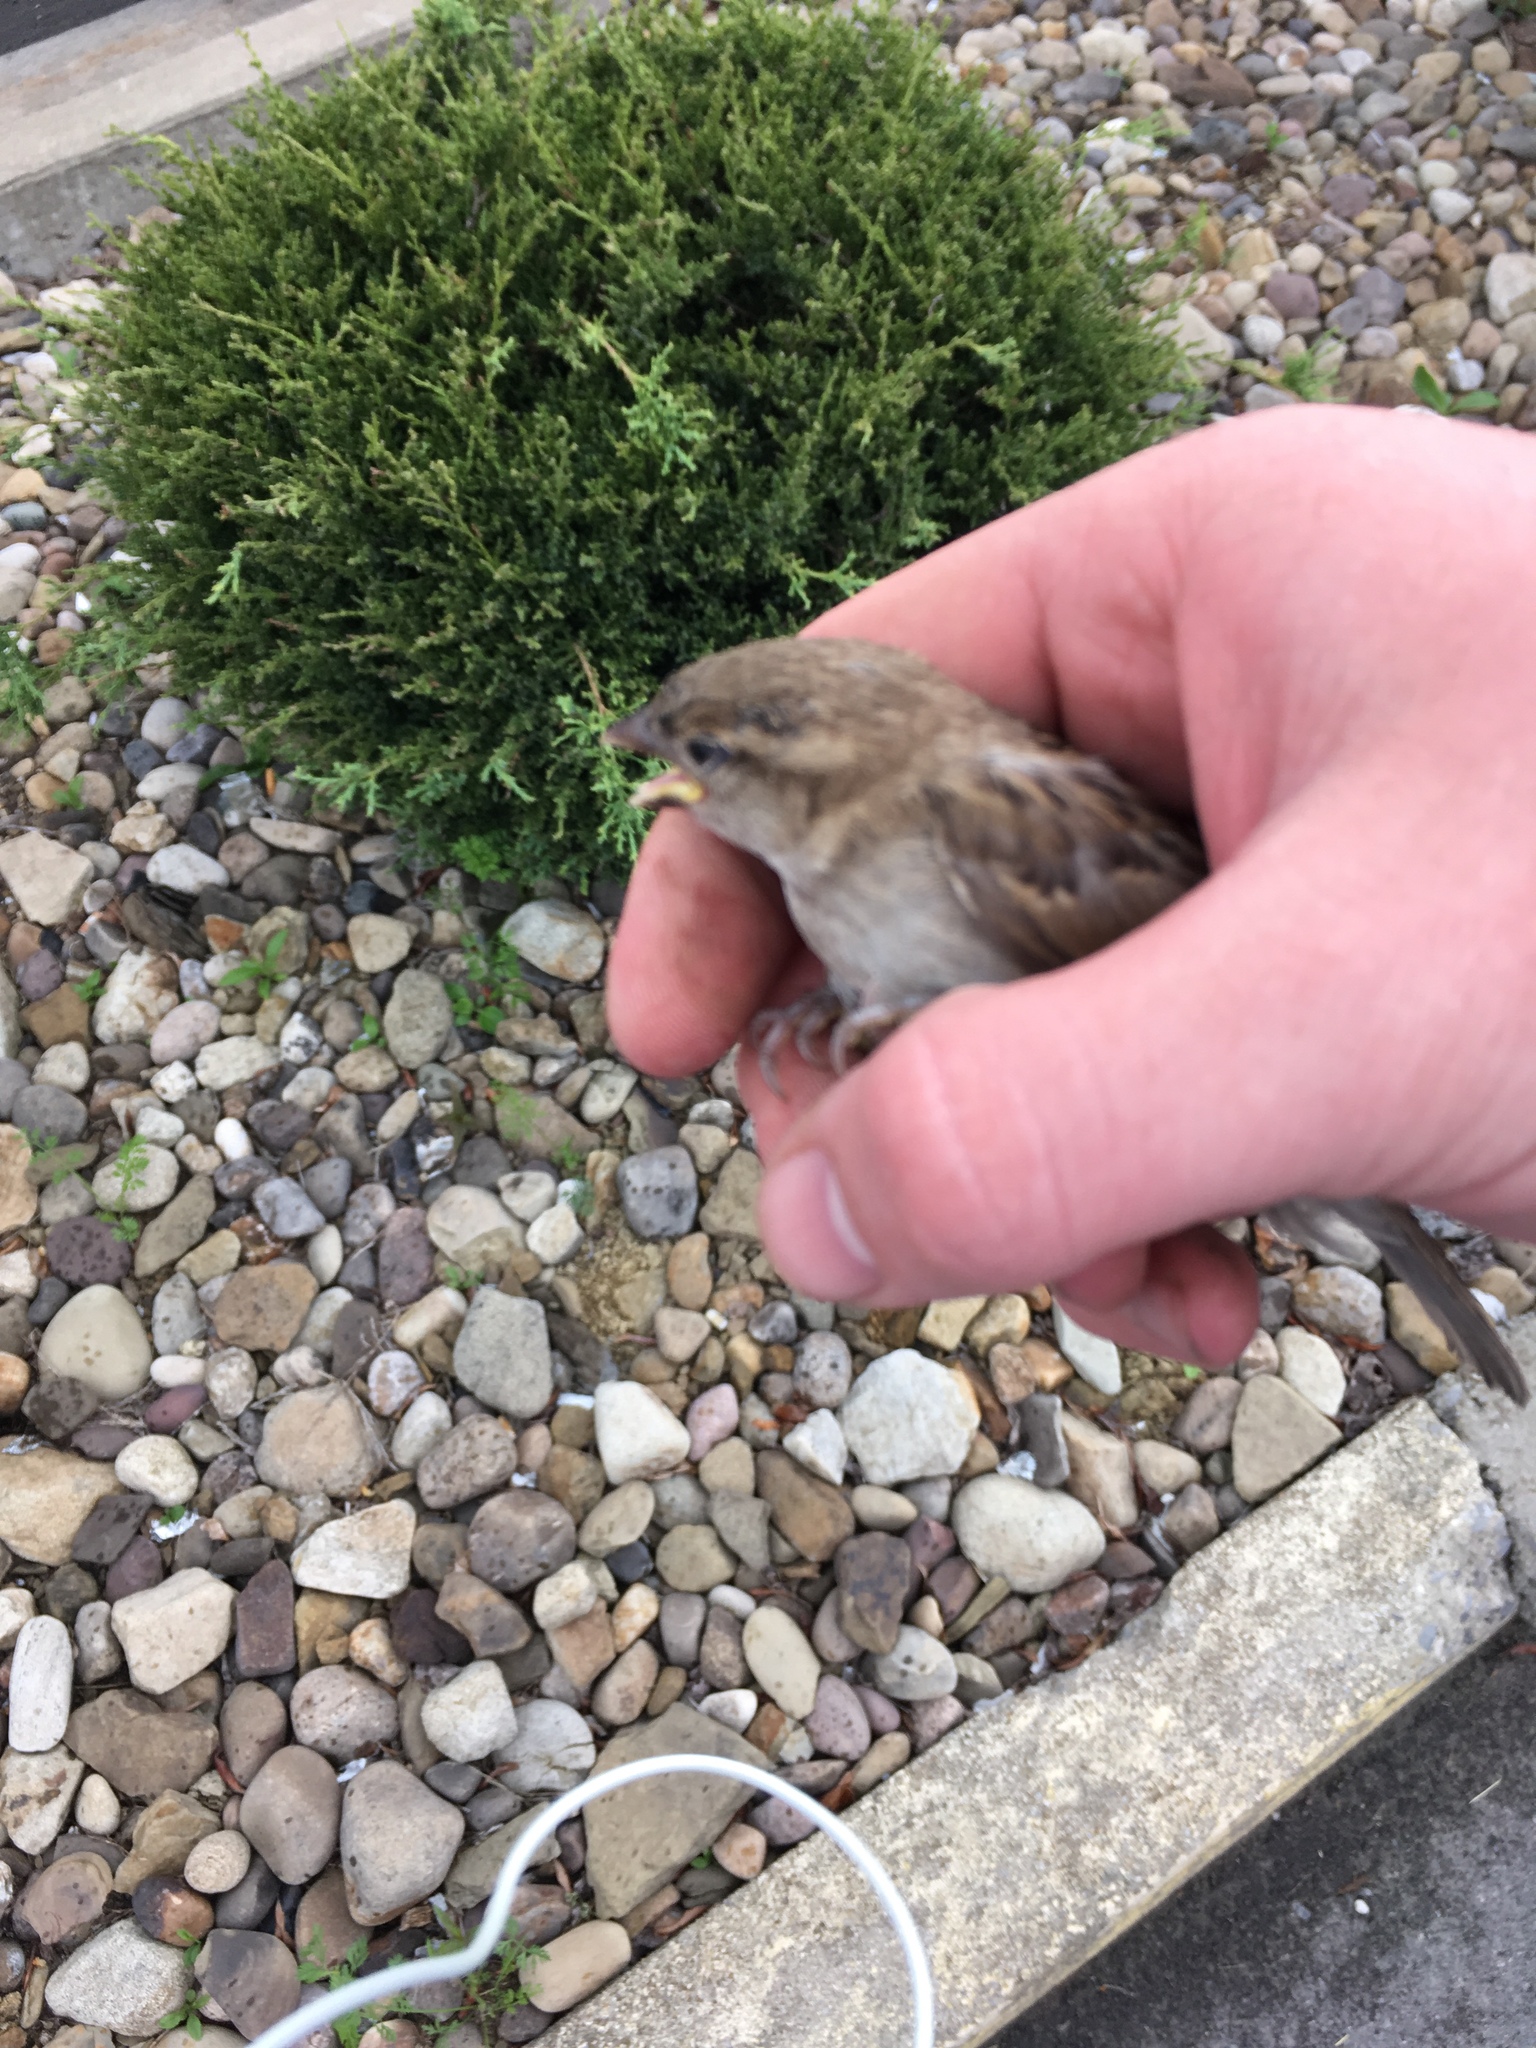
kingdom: Animalia
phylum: Chordata
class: Aves
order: Passeriformes
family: Passeridae
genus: Passer
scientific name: Passer domesticus
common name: House sparrow
